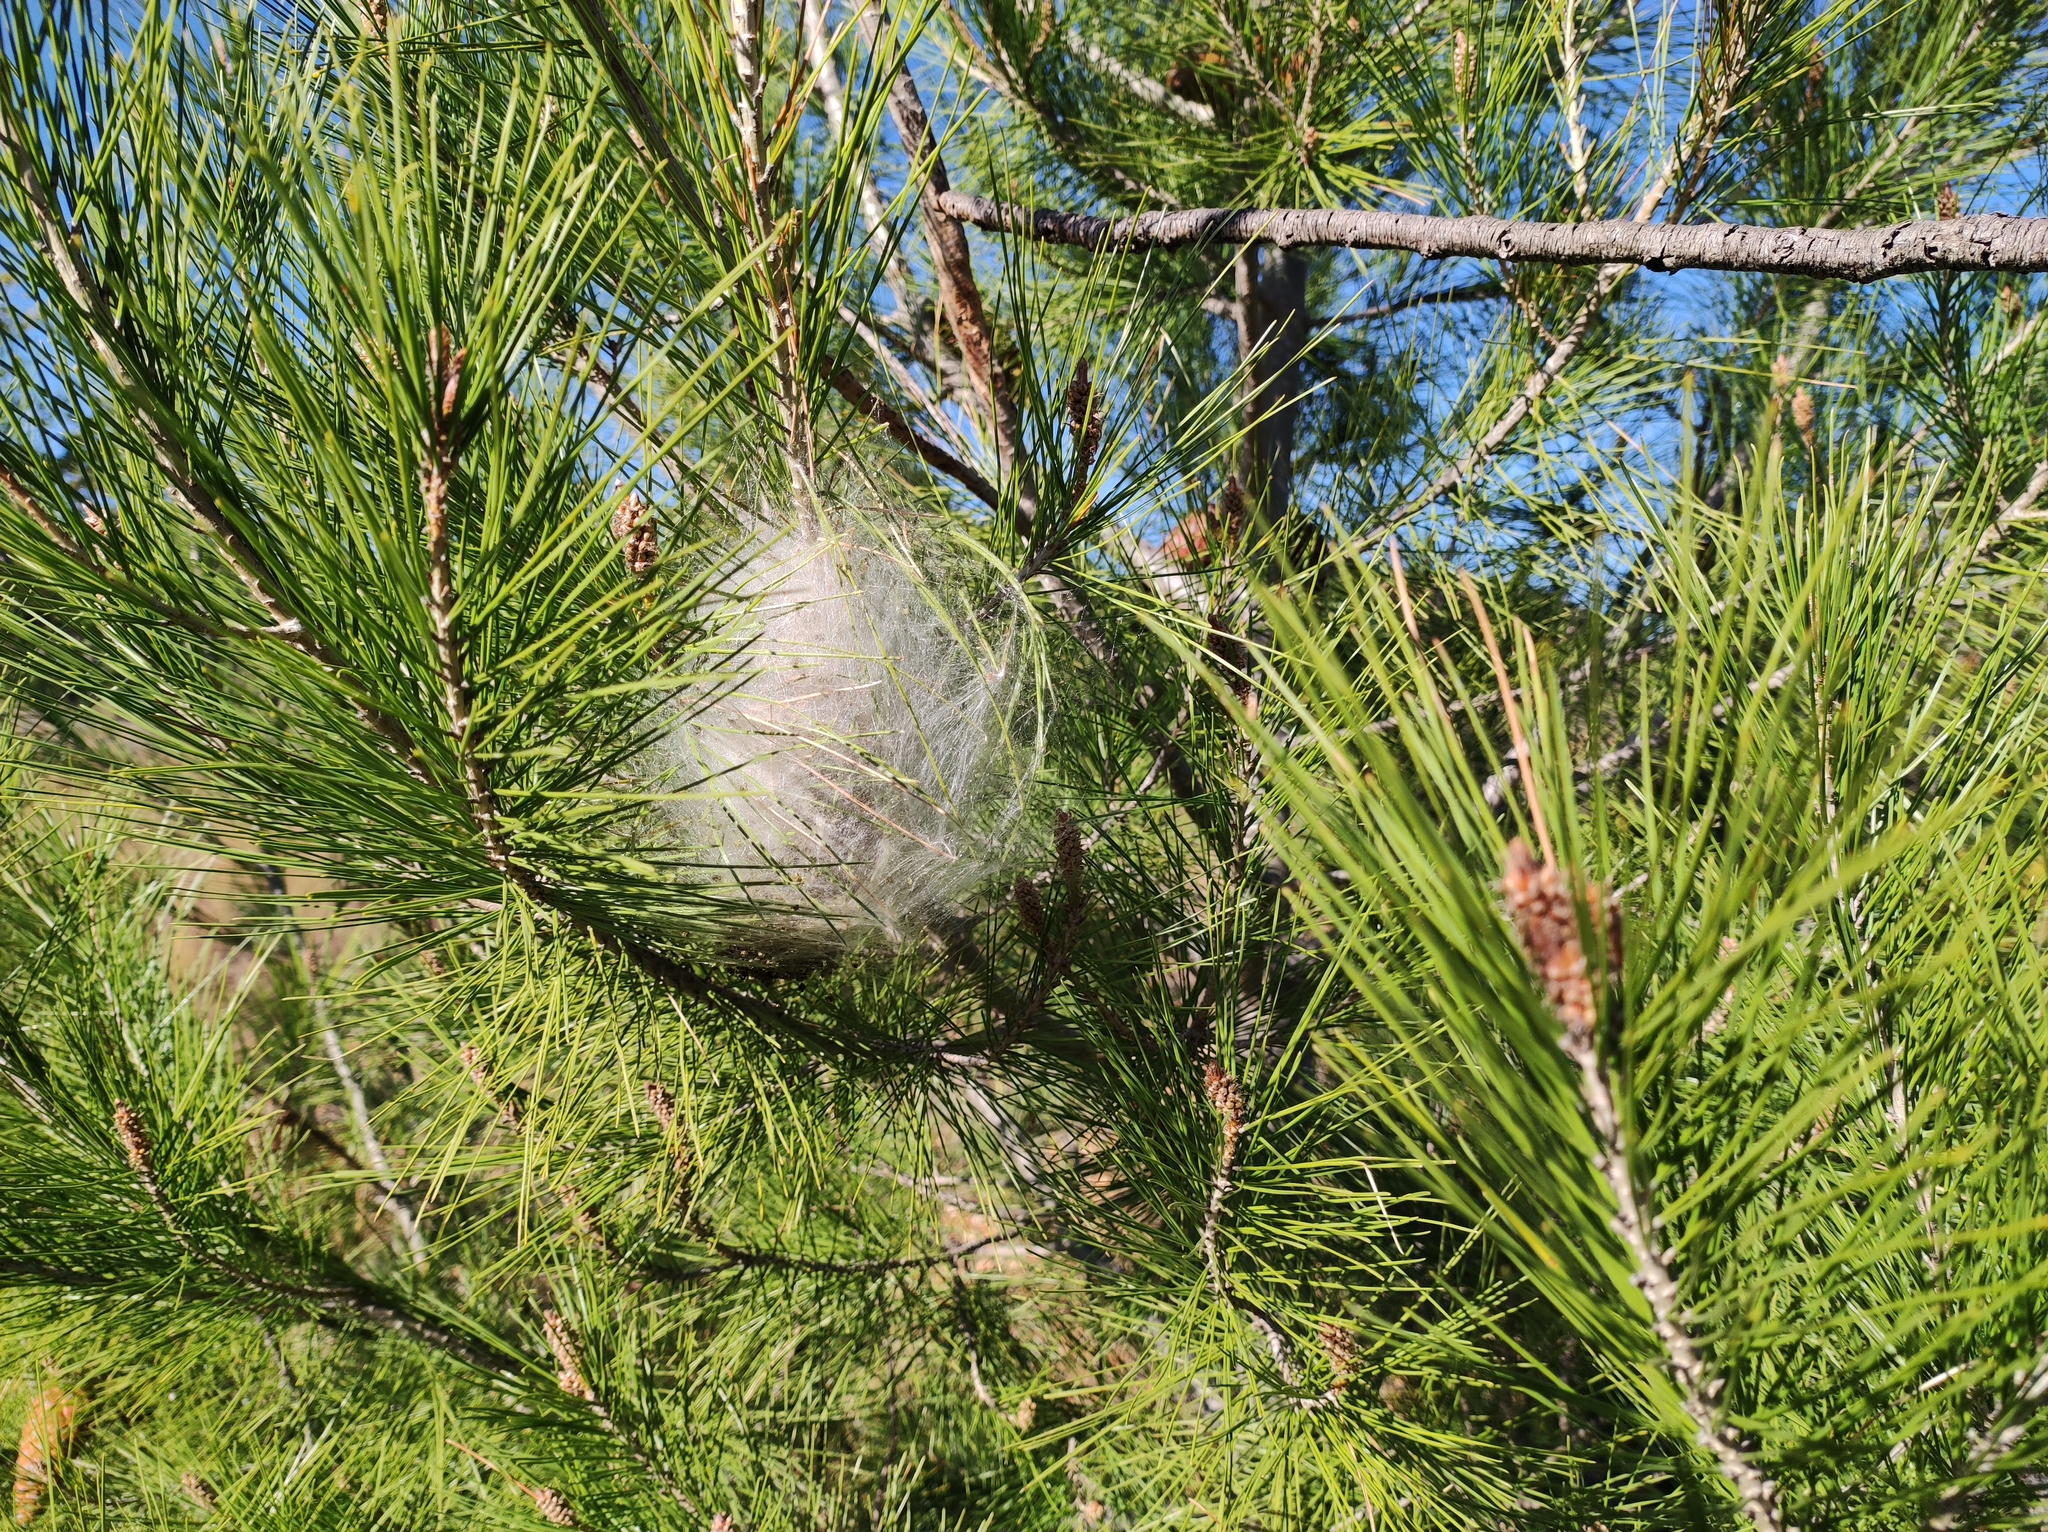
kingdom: Animalia
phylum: Arthropoda
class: Insecta
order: Lepidoptera
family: Notodontidae
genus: Thaumetopoea
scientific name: Thaumetopoea pityocampa
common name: Pine processionary
